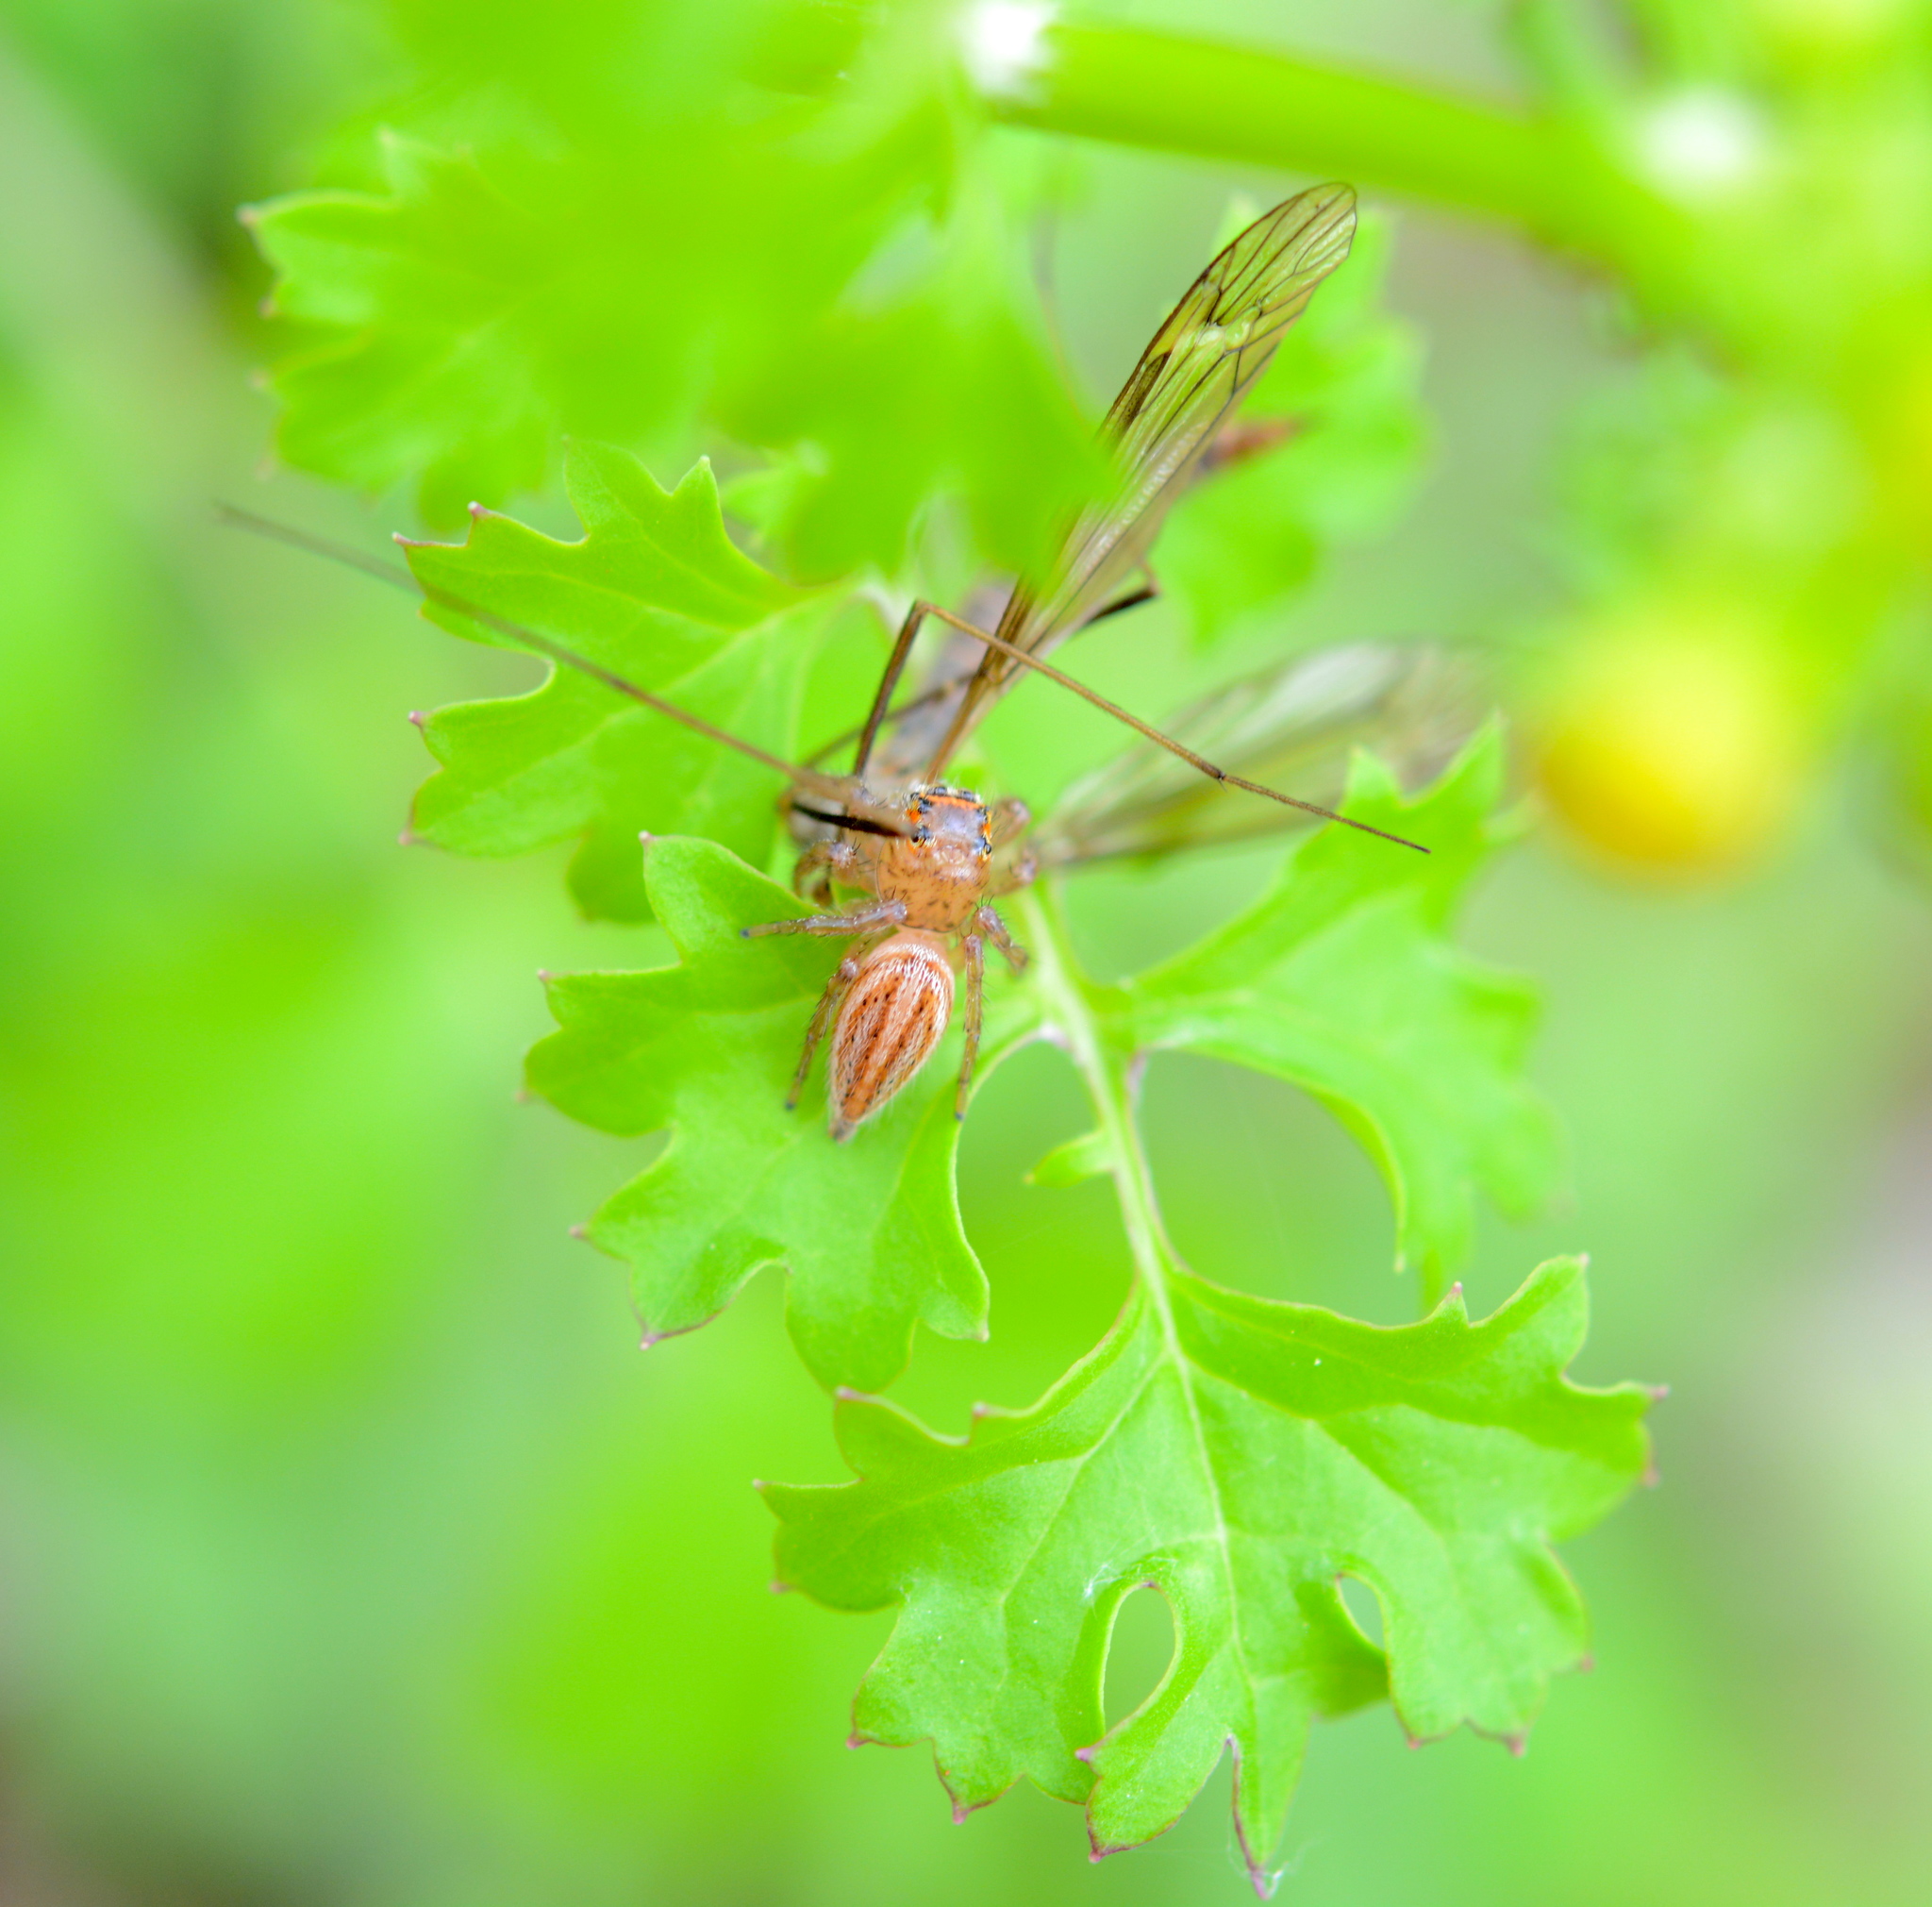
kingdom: Animalia
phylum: Arthropoda
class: Arachnida
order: Araneae
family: Salticidae
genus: Colonus
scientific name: Colonus sylvanus
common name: Jumping spiders
